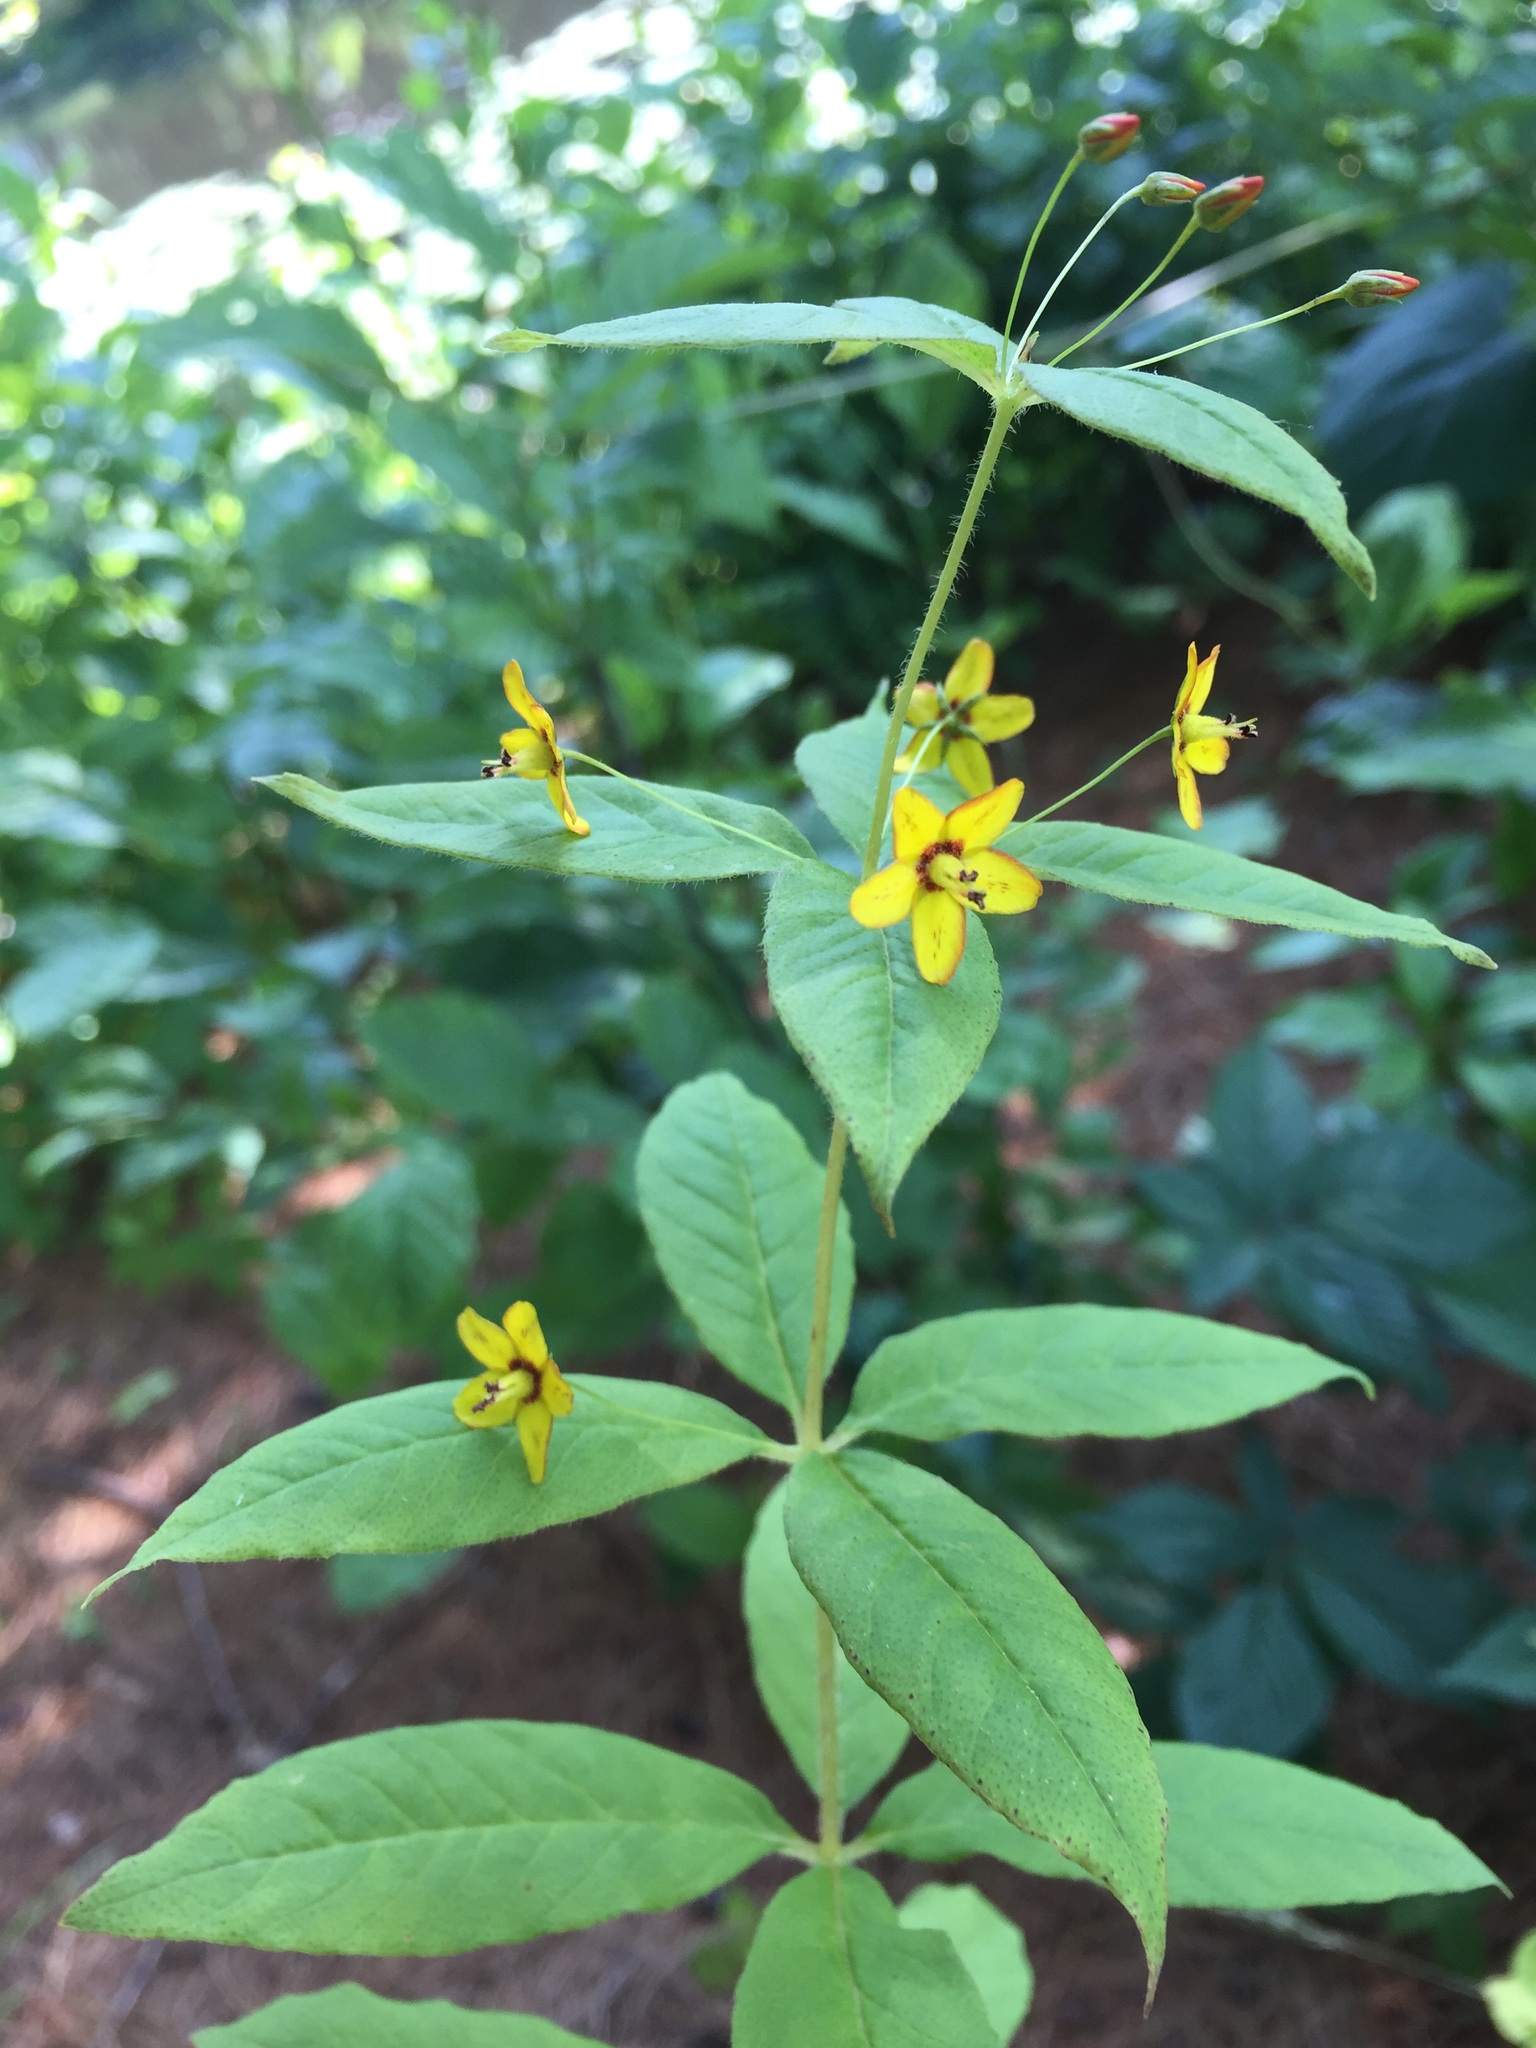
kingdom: Plantae
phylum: Tracheophyta
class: Magnoliopsida
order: Ericales
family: Primulaceae
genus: Lysimachia
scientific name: Lysimachia quadrifolia
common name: Whorled loosestrife
